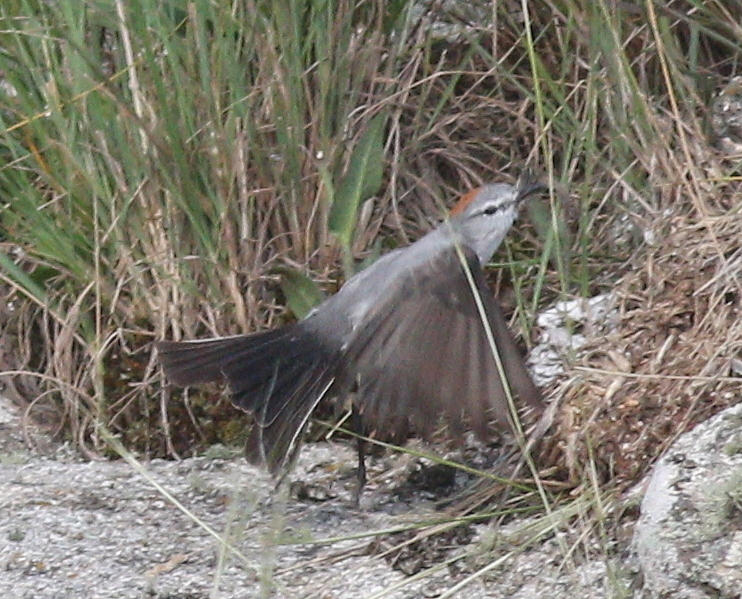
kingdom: Animalia
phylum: Chordata
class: Aves
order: Passeriformes
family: Tyrannidae
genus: Muscisaxicola
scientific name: Muscisaxicola rufivertex
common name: Rufous-naped ground tyrant
